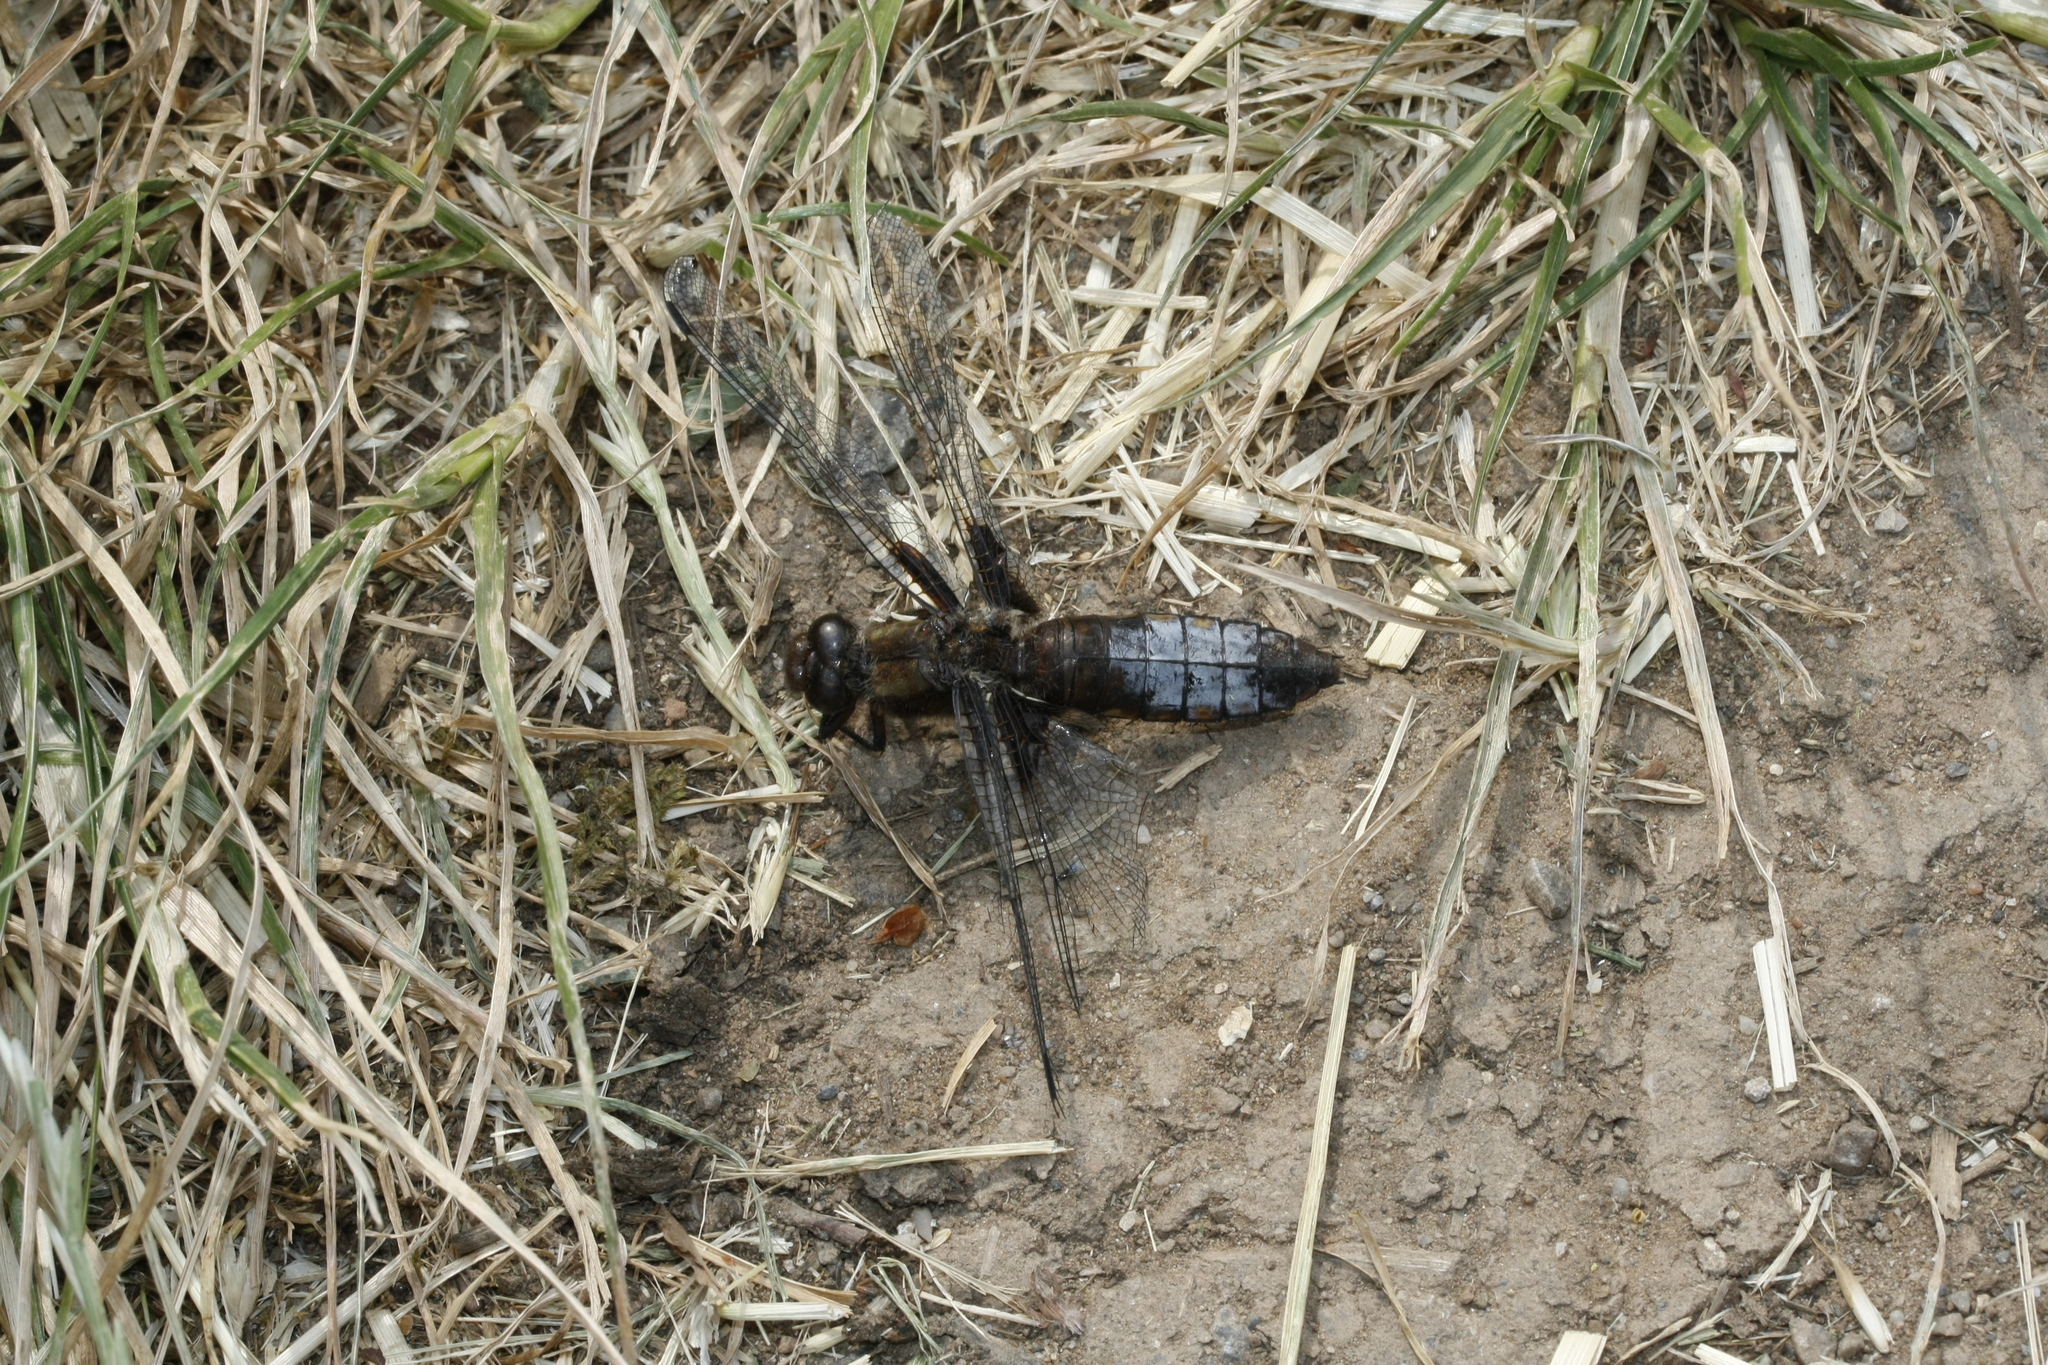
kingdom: Animalia
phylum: Arthropoda
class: Insecta
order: Odonata
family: Libellulidae
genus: Libellula
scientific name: Libellula depressa
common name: Broad-bodied chaser
